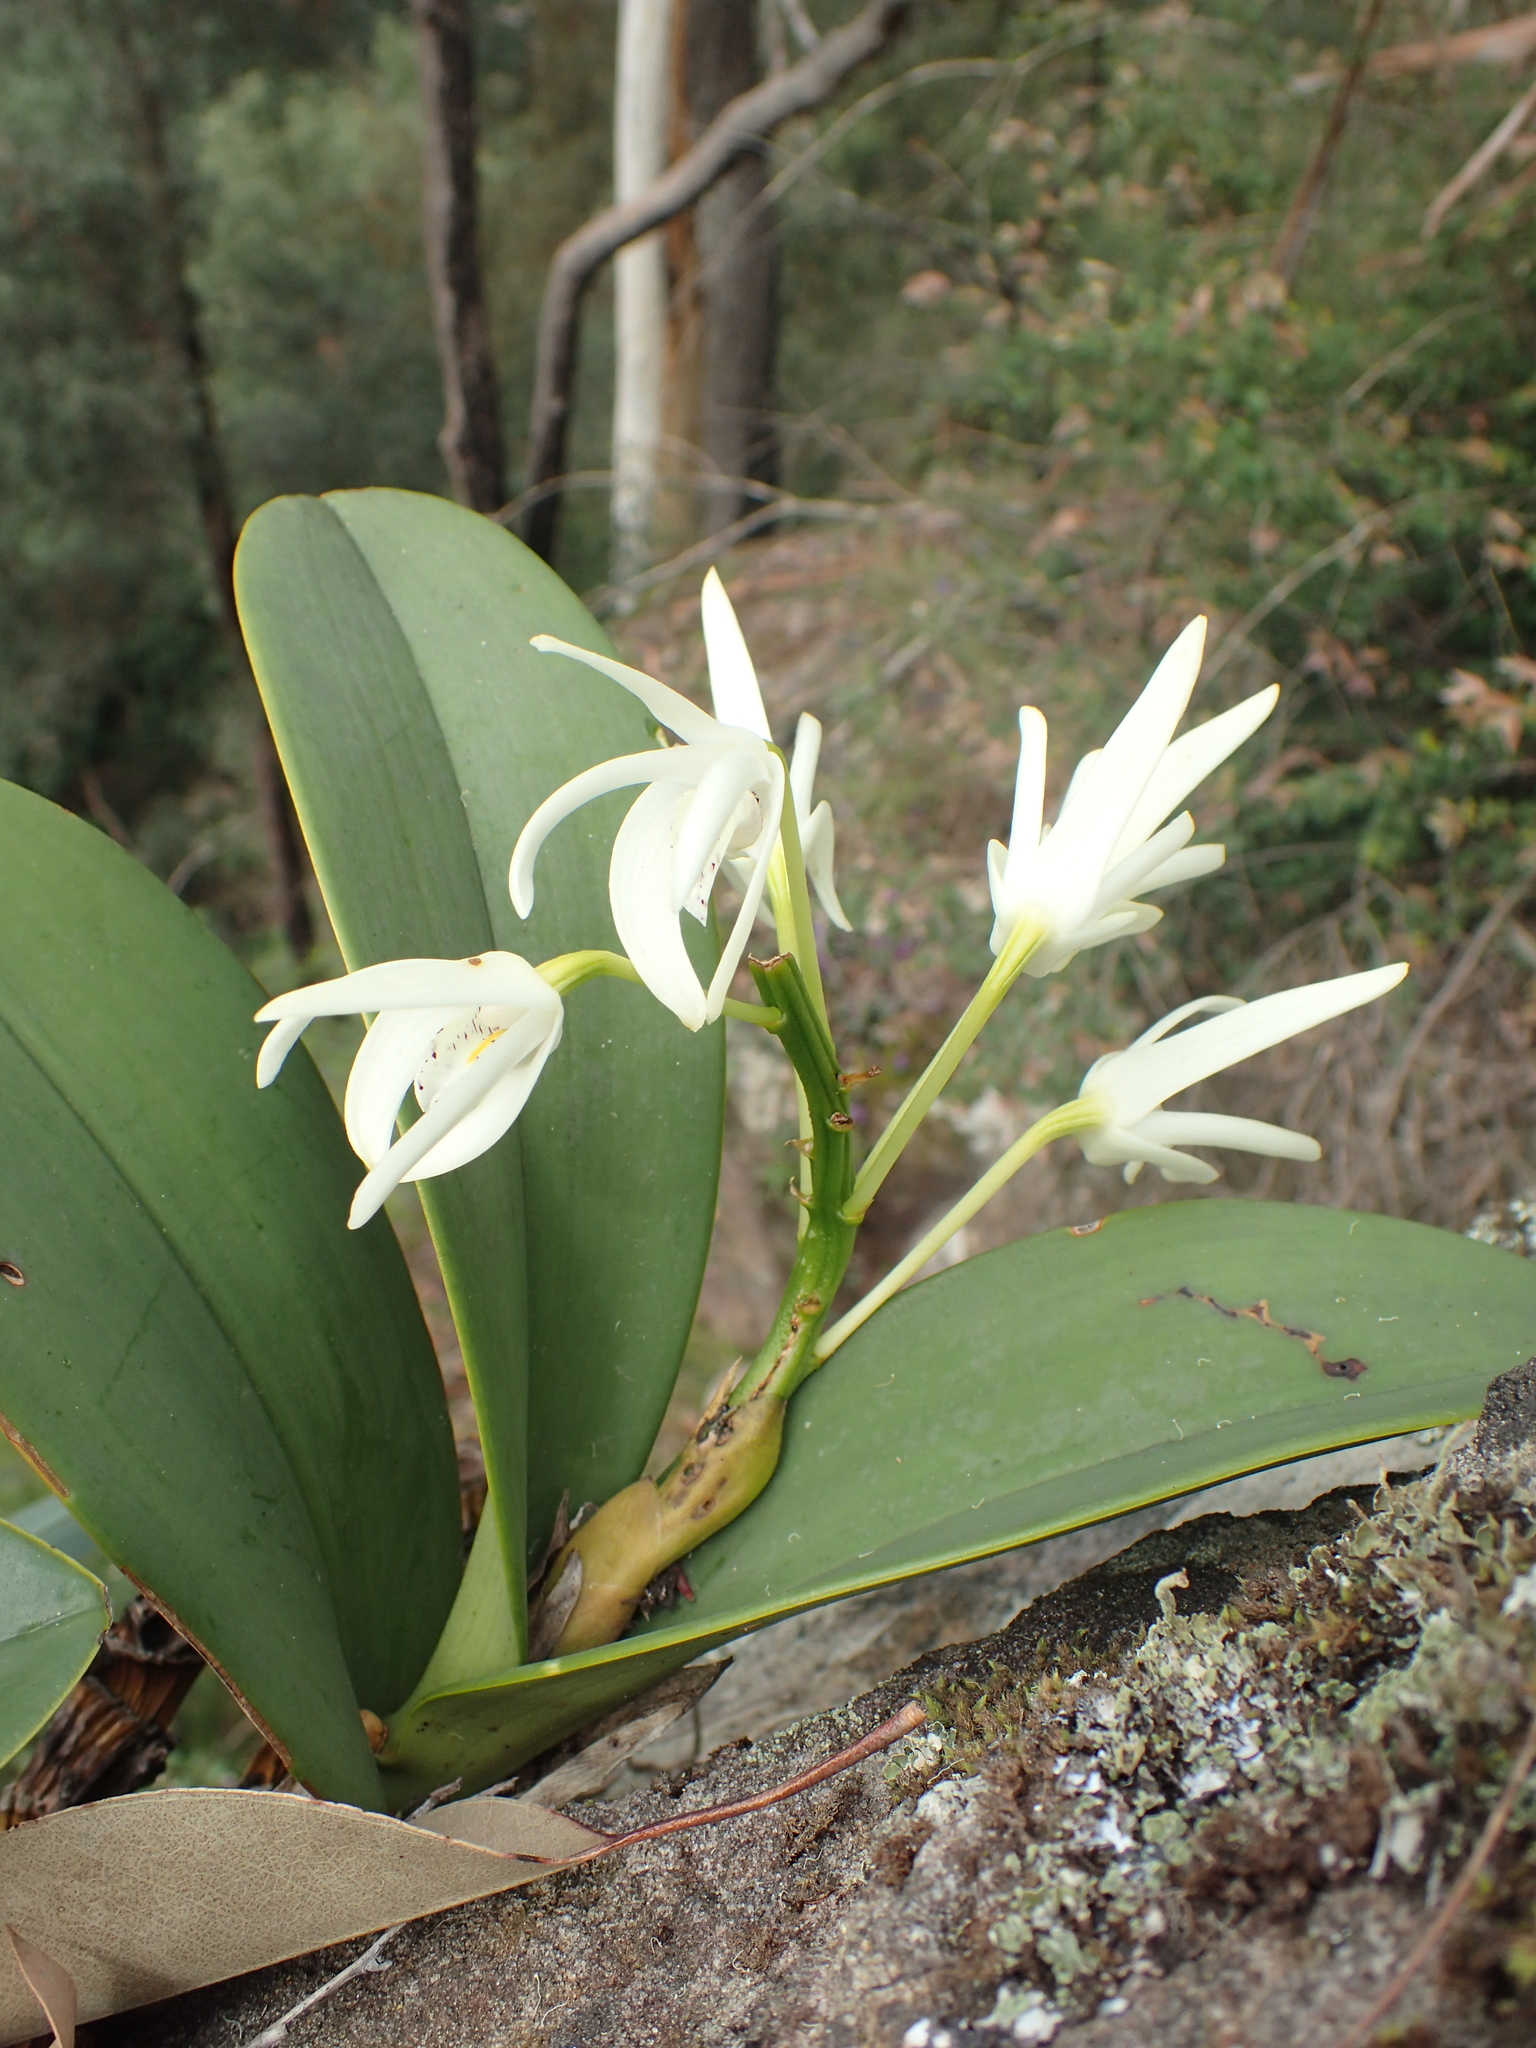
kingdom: Plantae
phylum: Tracheophyta
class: Liliopsida
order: Asparagales
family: Orchidaceae
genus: Dendrobium
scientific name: Dendrobium speciosum
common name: Rock-lily
